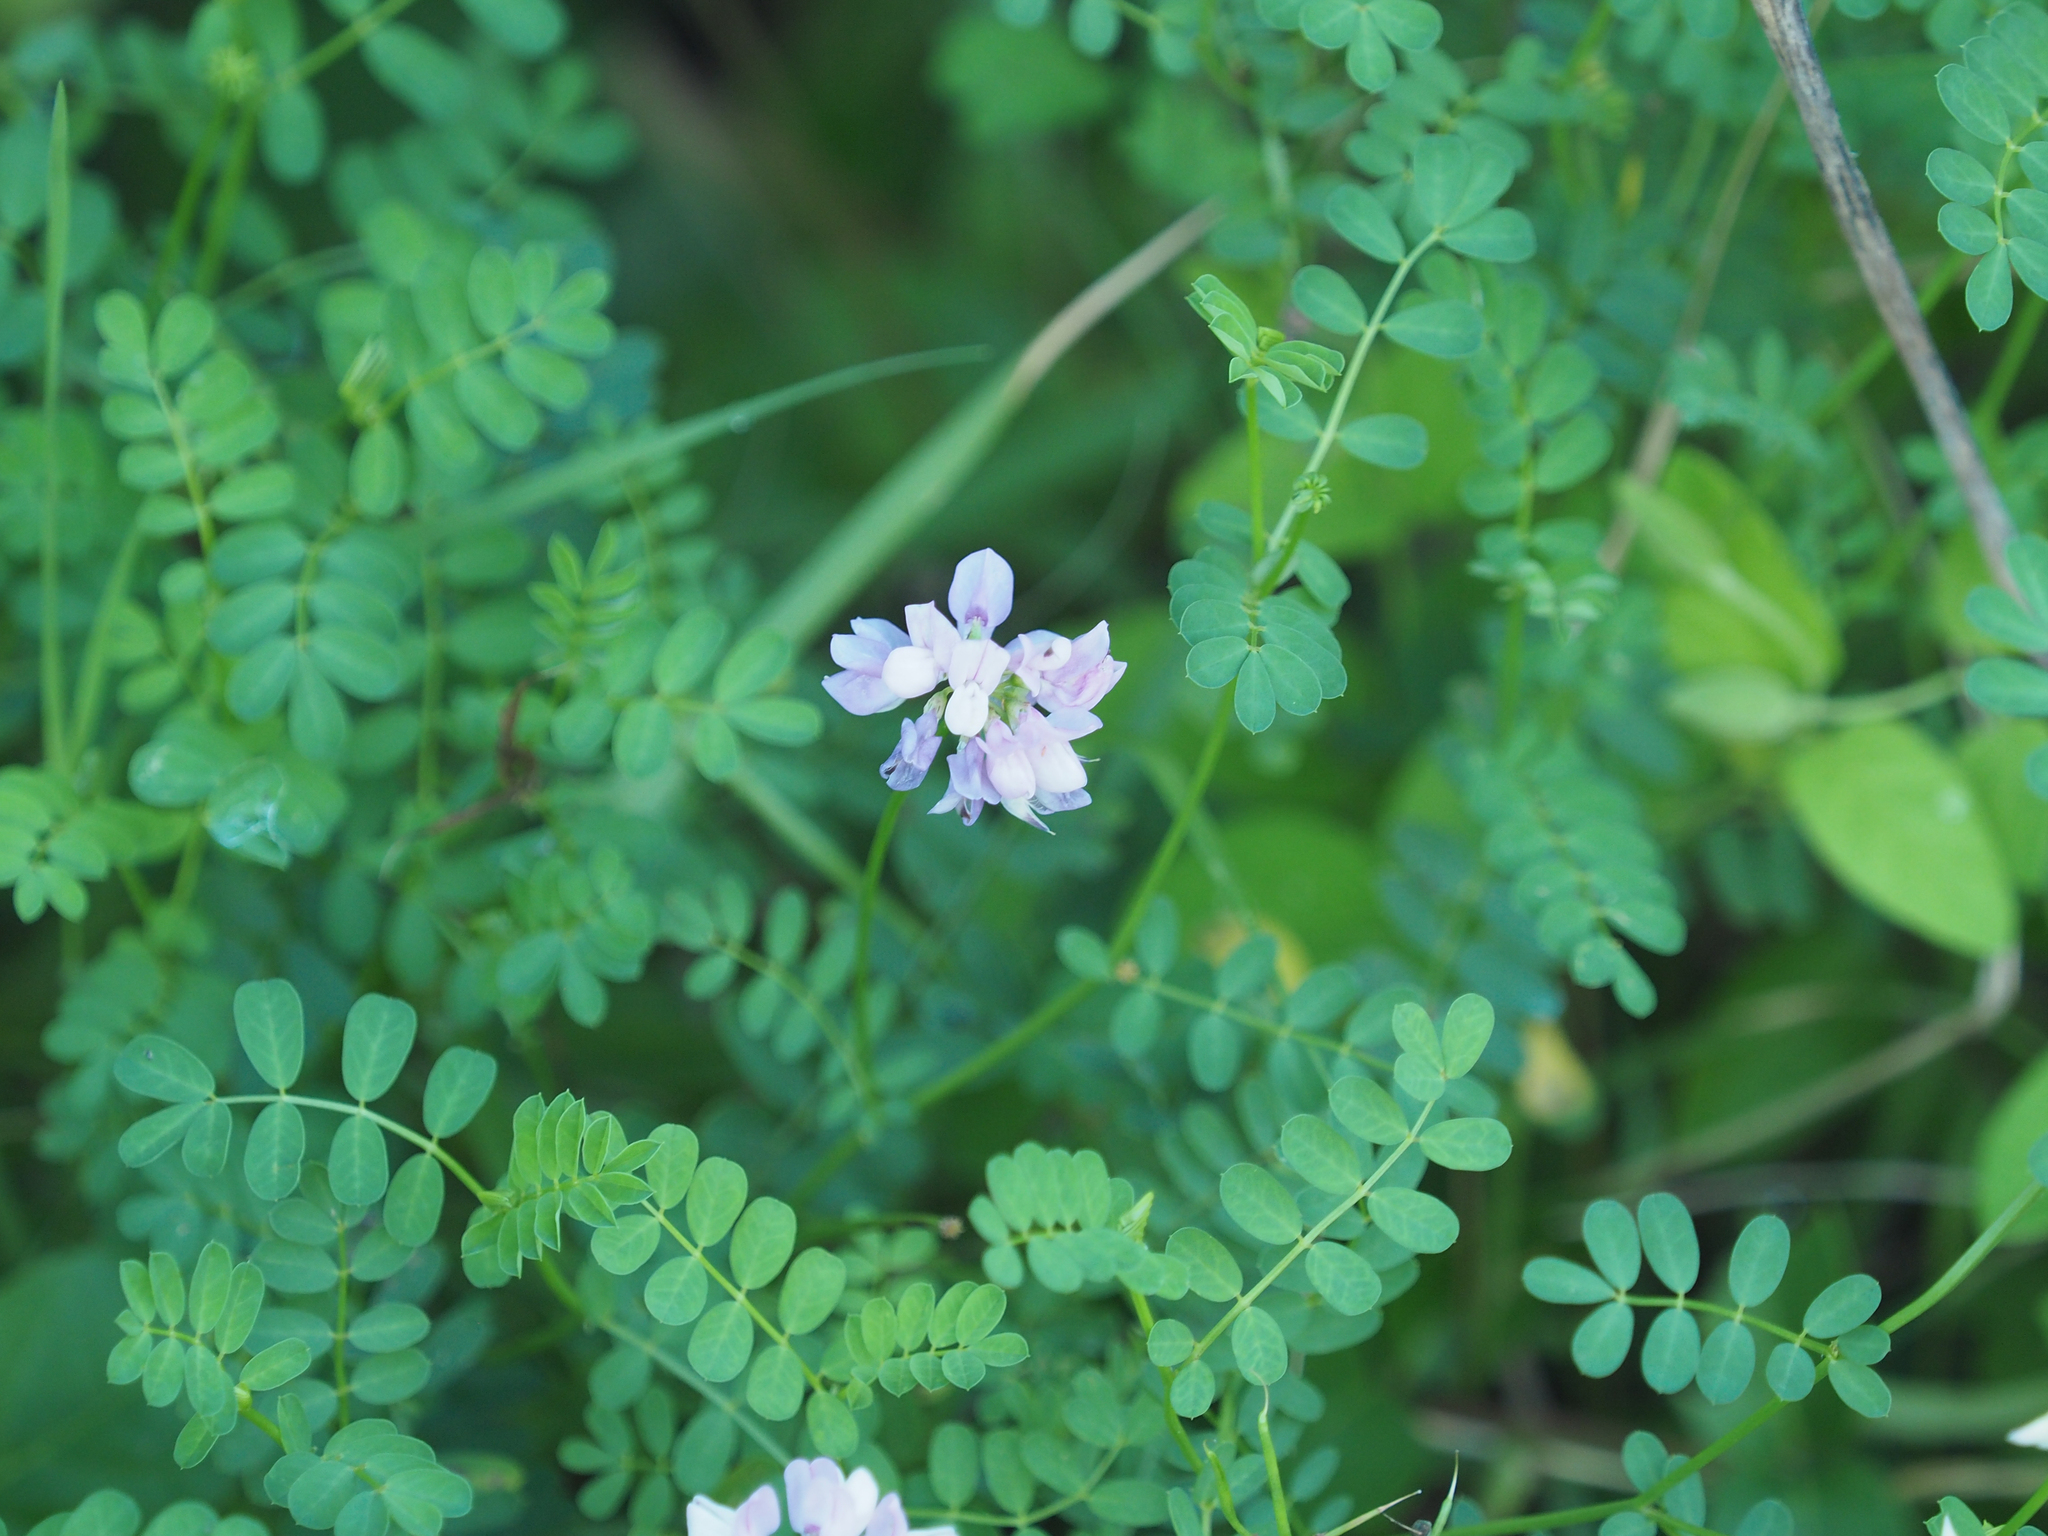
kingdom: Plantae
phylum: Tracheophyta
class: Magnoliopsida
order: Fabales
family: Fabaceae
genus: Coronilla
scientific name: Coronilla varia
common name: Crownvetch
